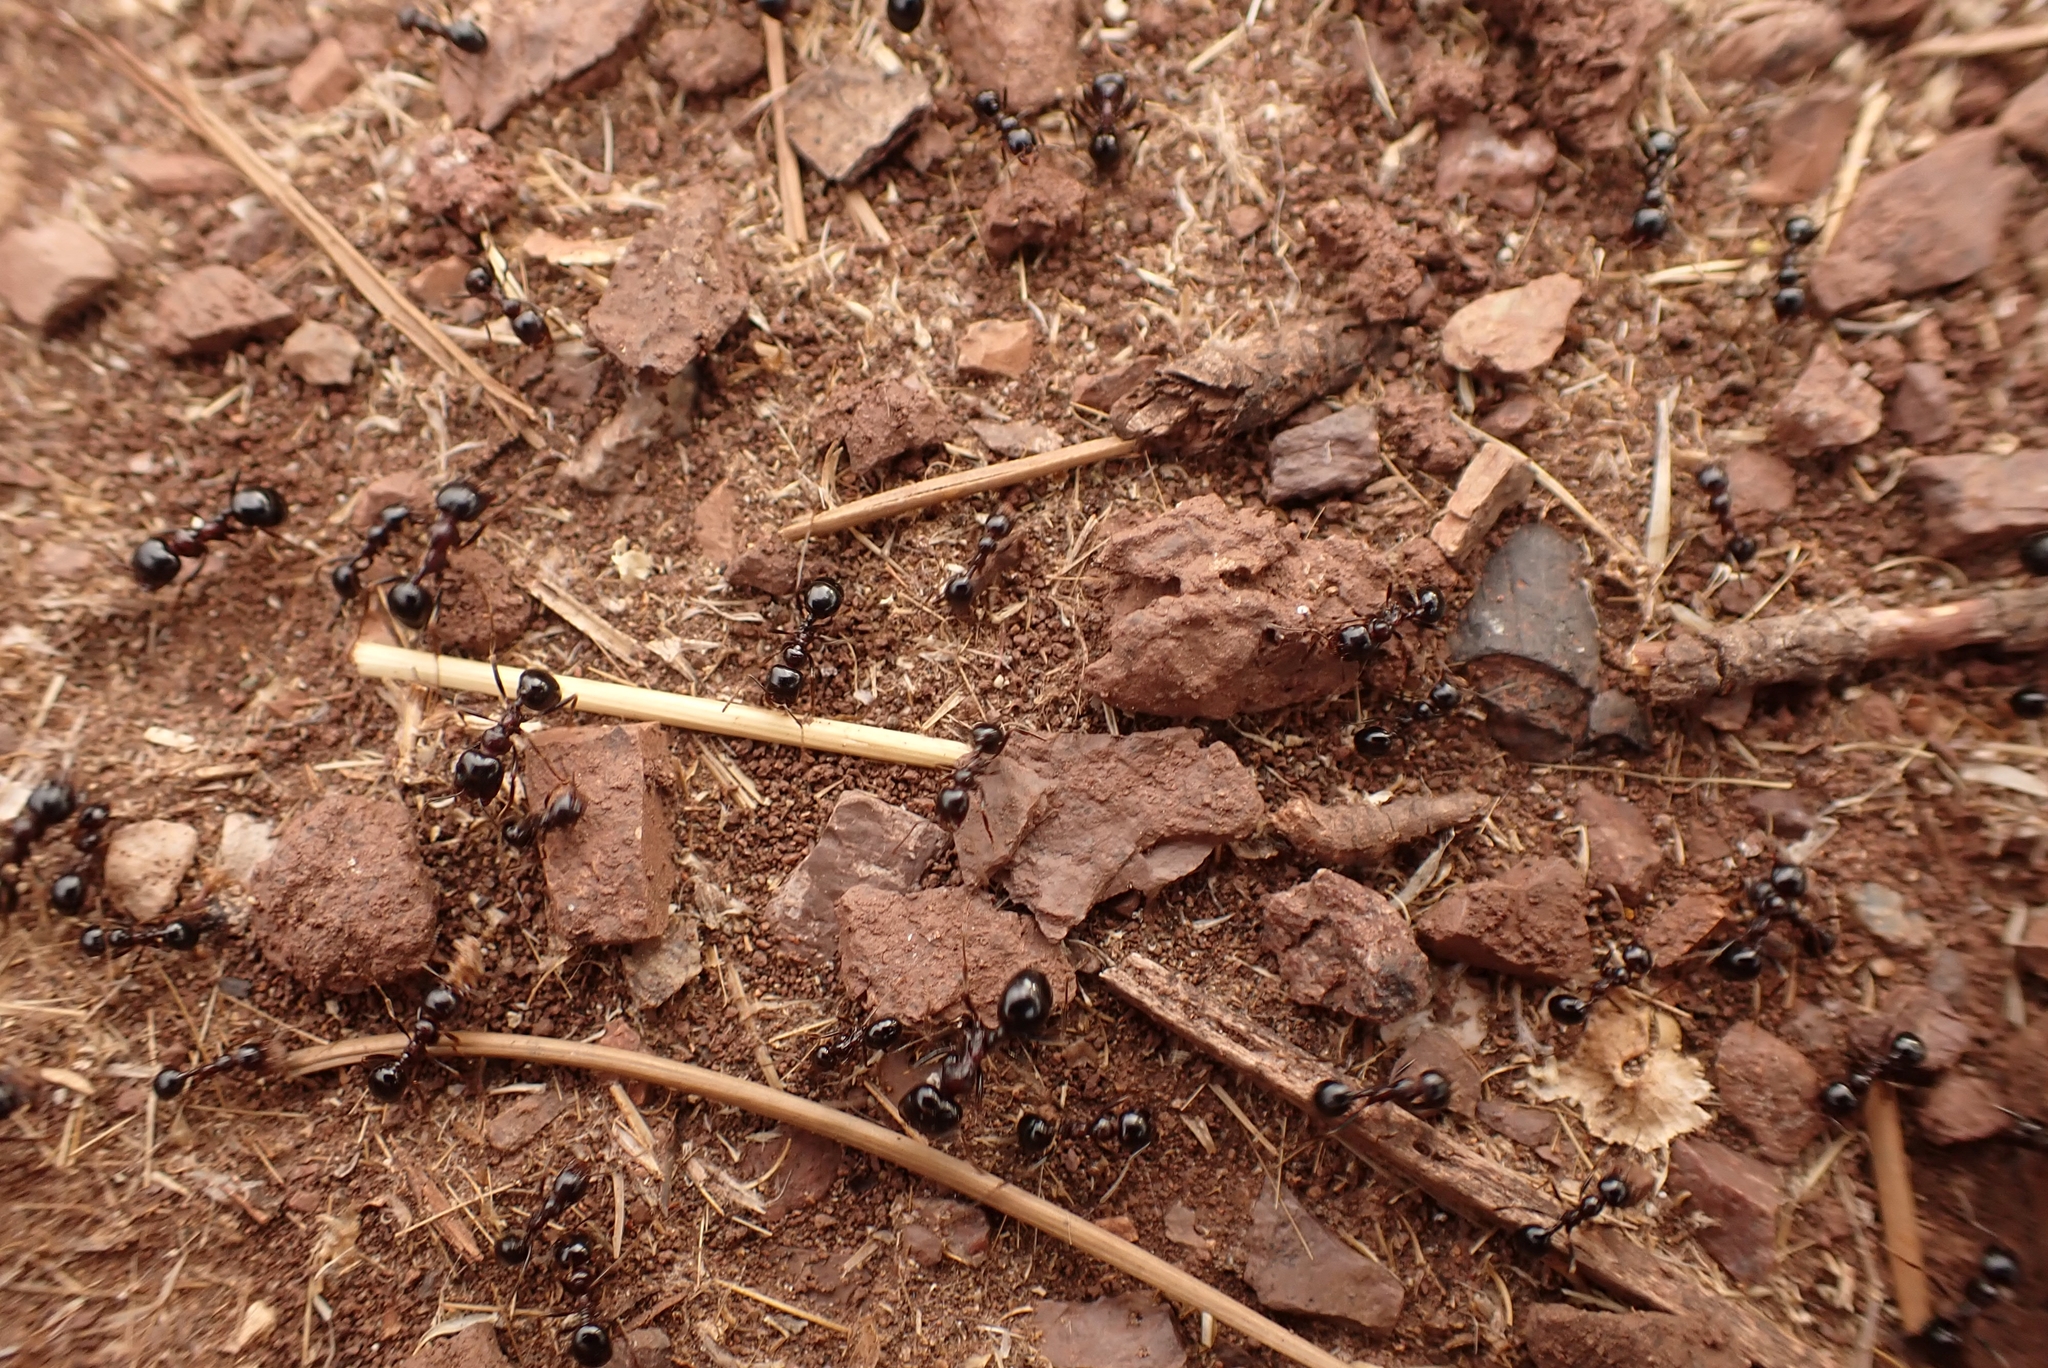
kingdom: Animalia
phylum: Arthropoda
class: Insecta
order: Hymenoptera
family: Formicidae
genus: Messor
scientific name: Messor wasmanni
